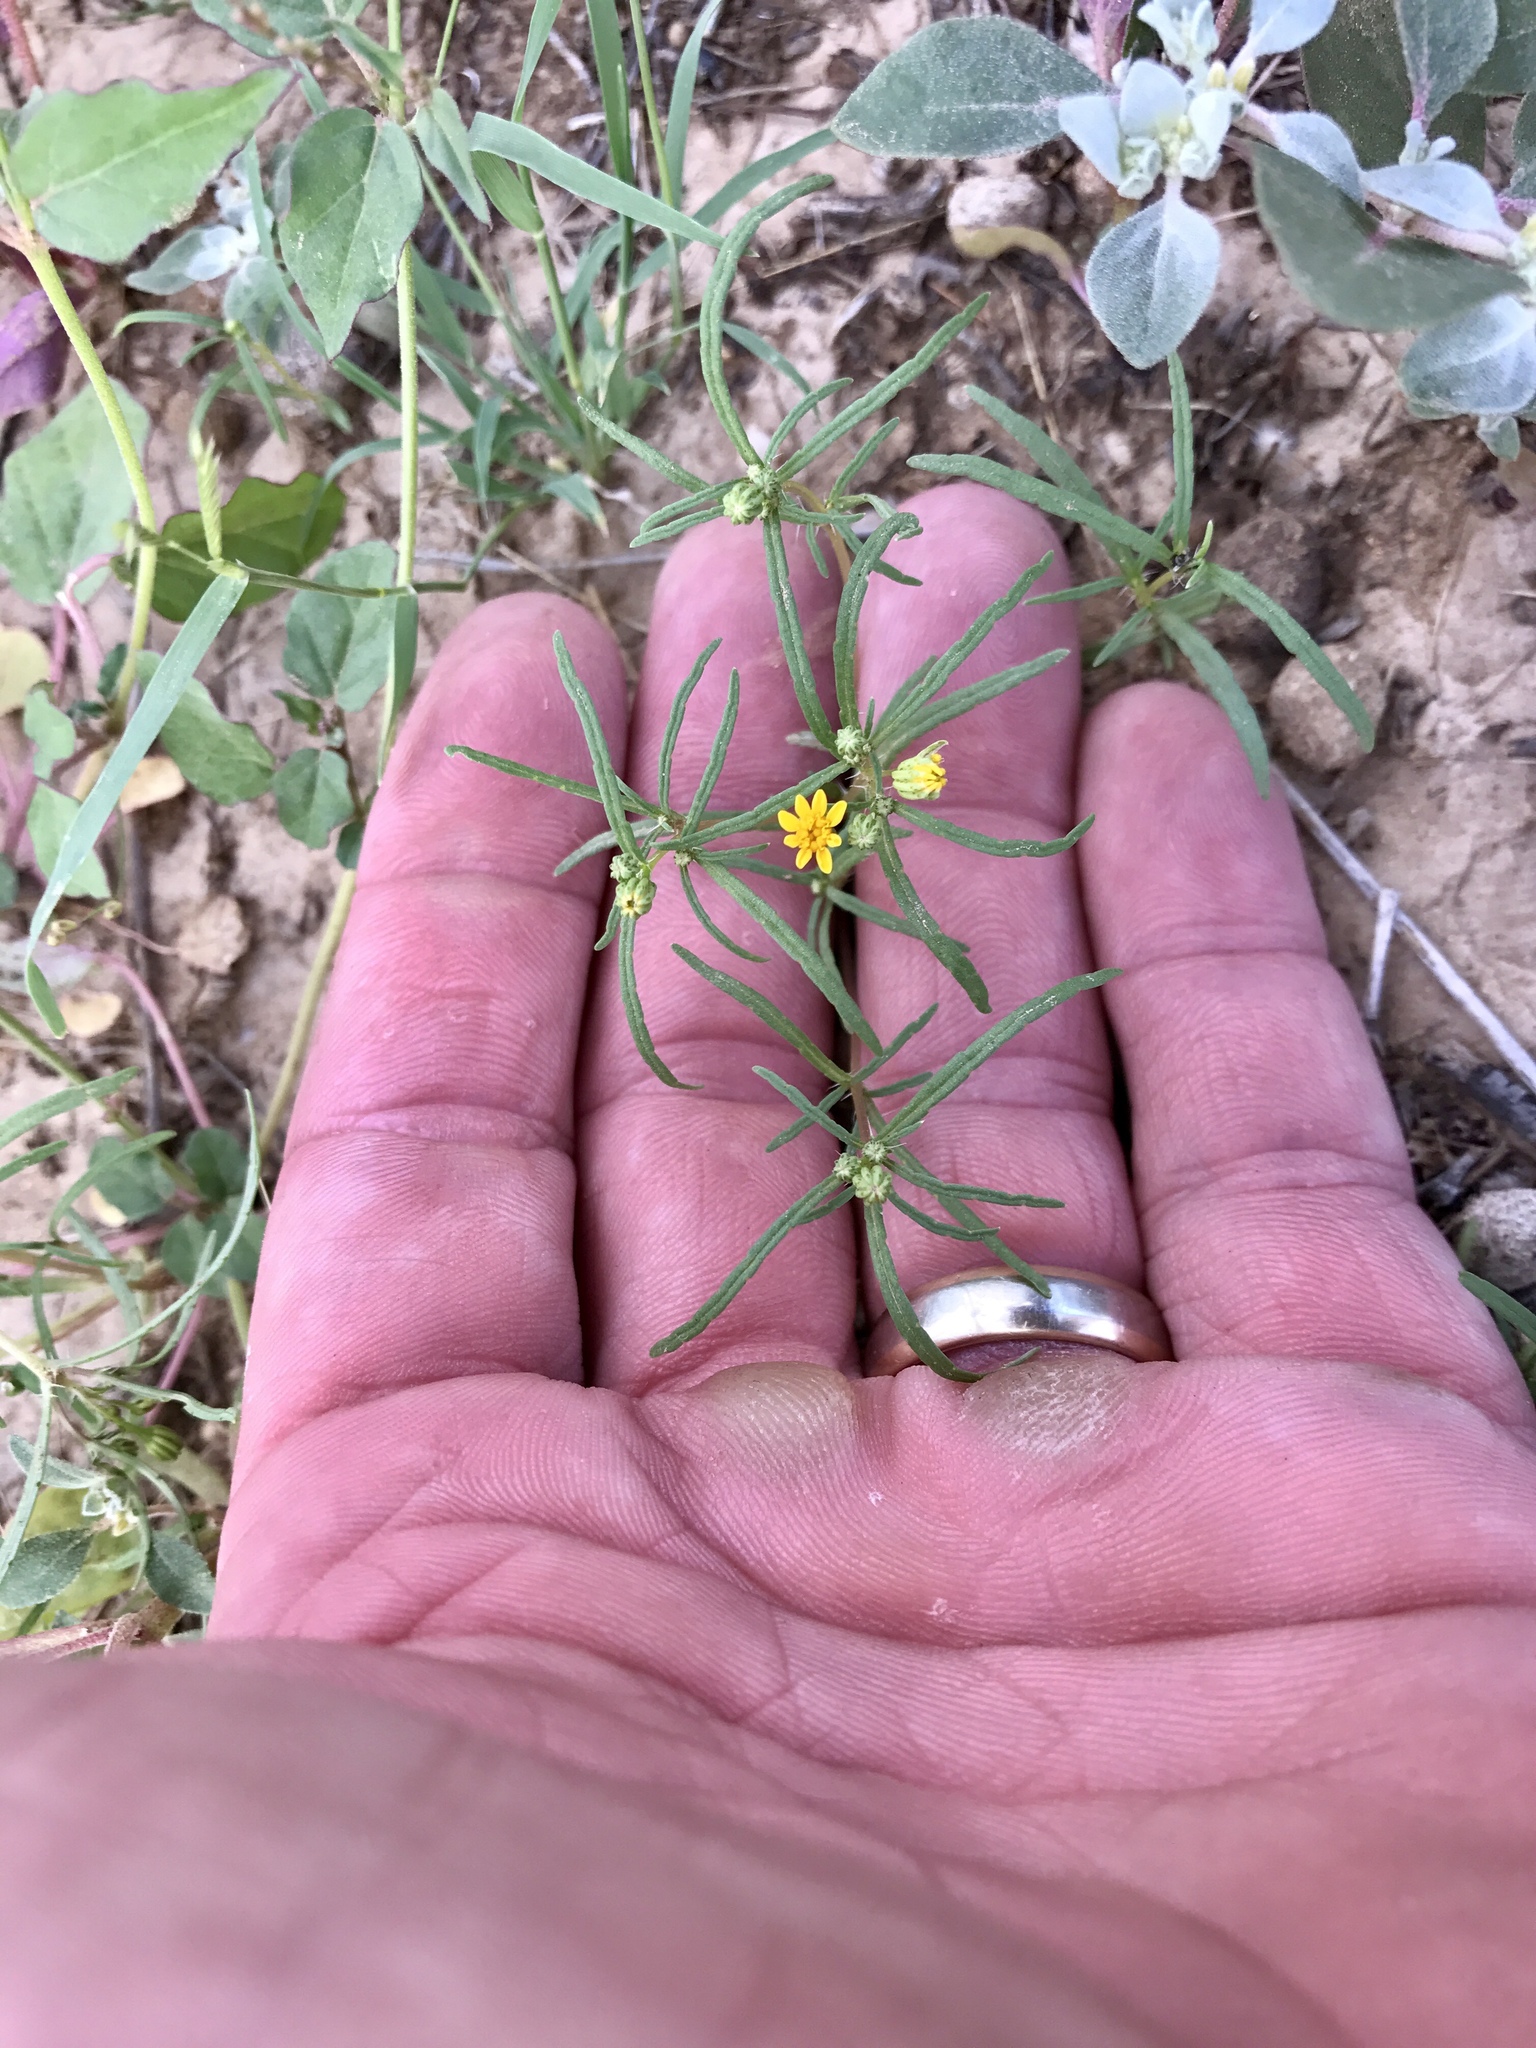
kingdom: Plantae
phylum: Tracheophyta
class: Magnoliopsida
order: Asterales
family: Asteraceae
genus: Pectis
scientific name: Pectis papposa
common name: Many-bristle chinchweed
